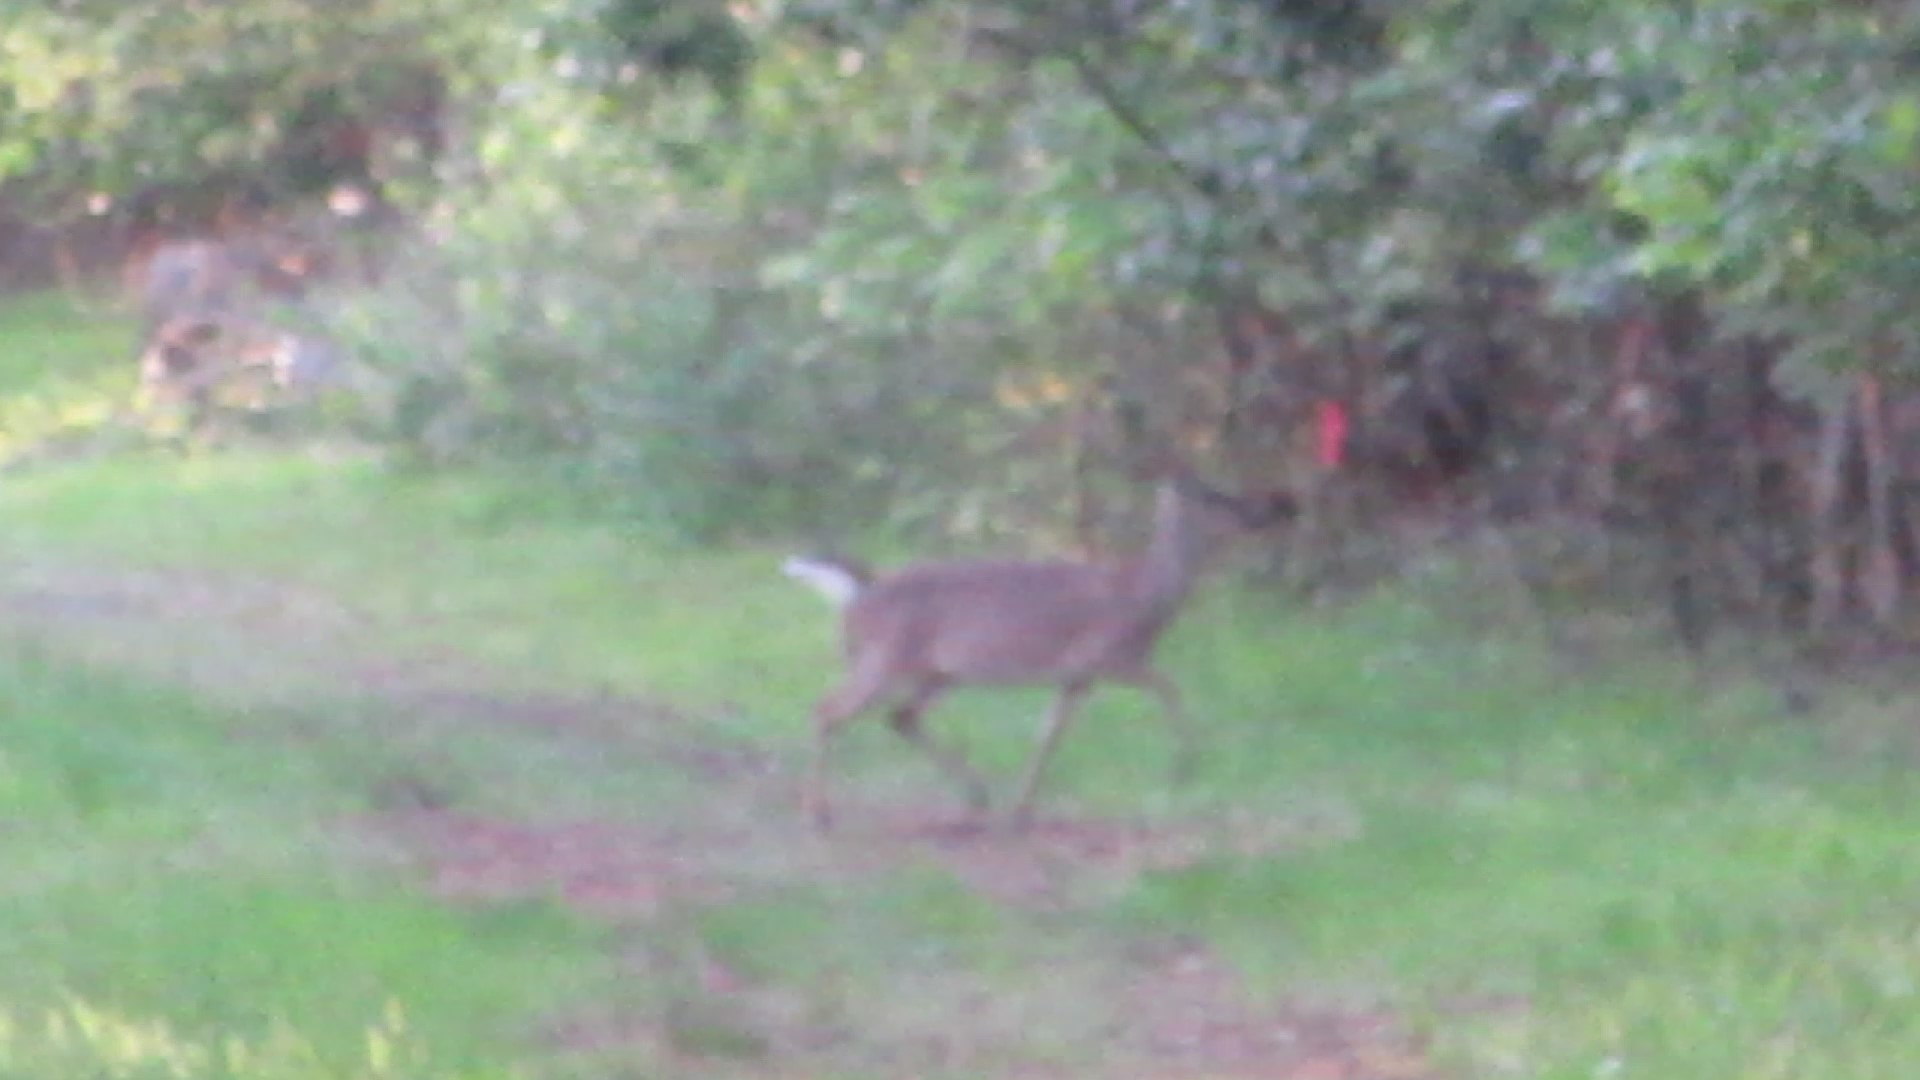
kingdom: Animalia
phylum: Chordata
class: Mammalia
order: Artiodactyla
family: Cervidae
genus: Odocoileus
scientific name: Odocoileus virginianus
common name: White-tailed deer
